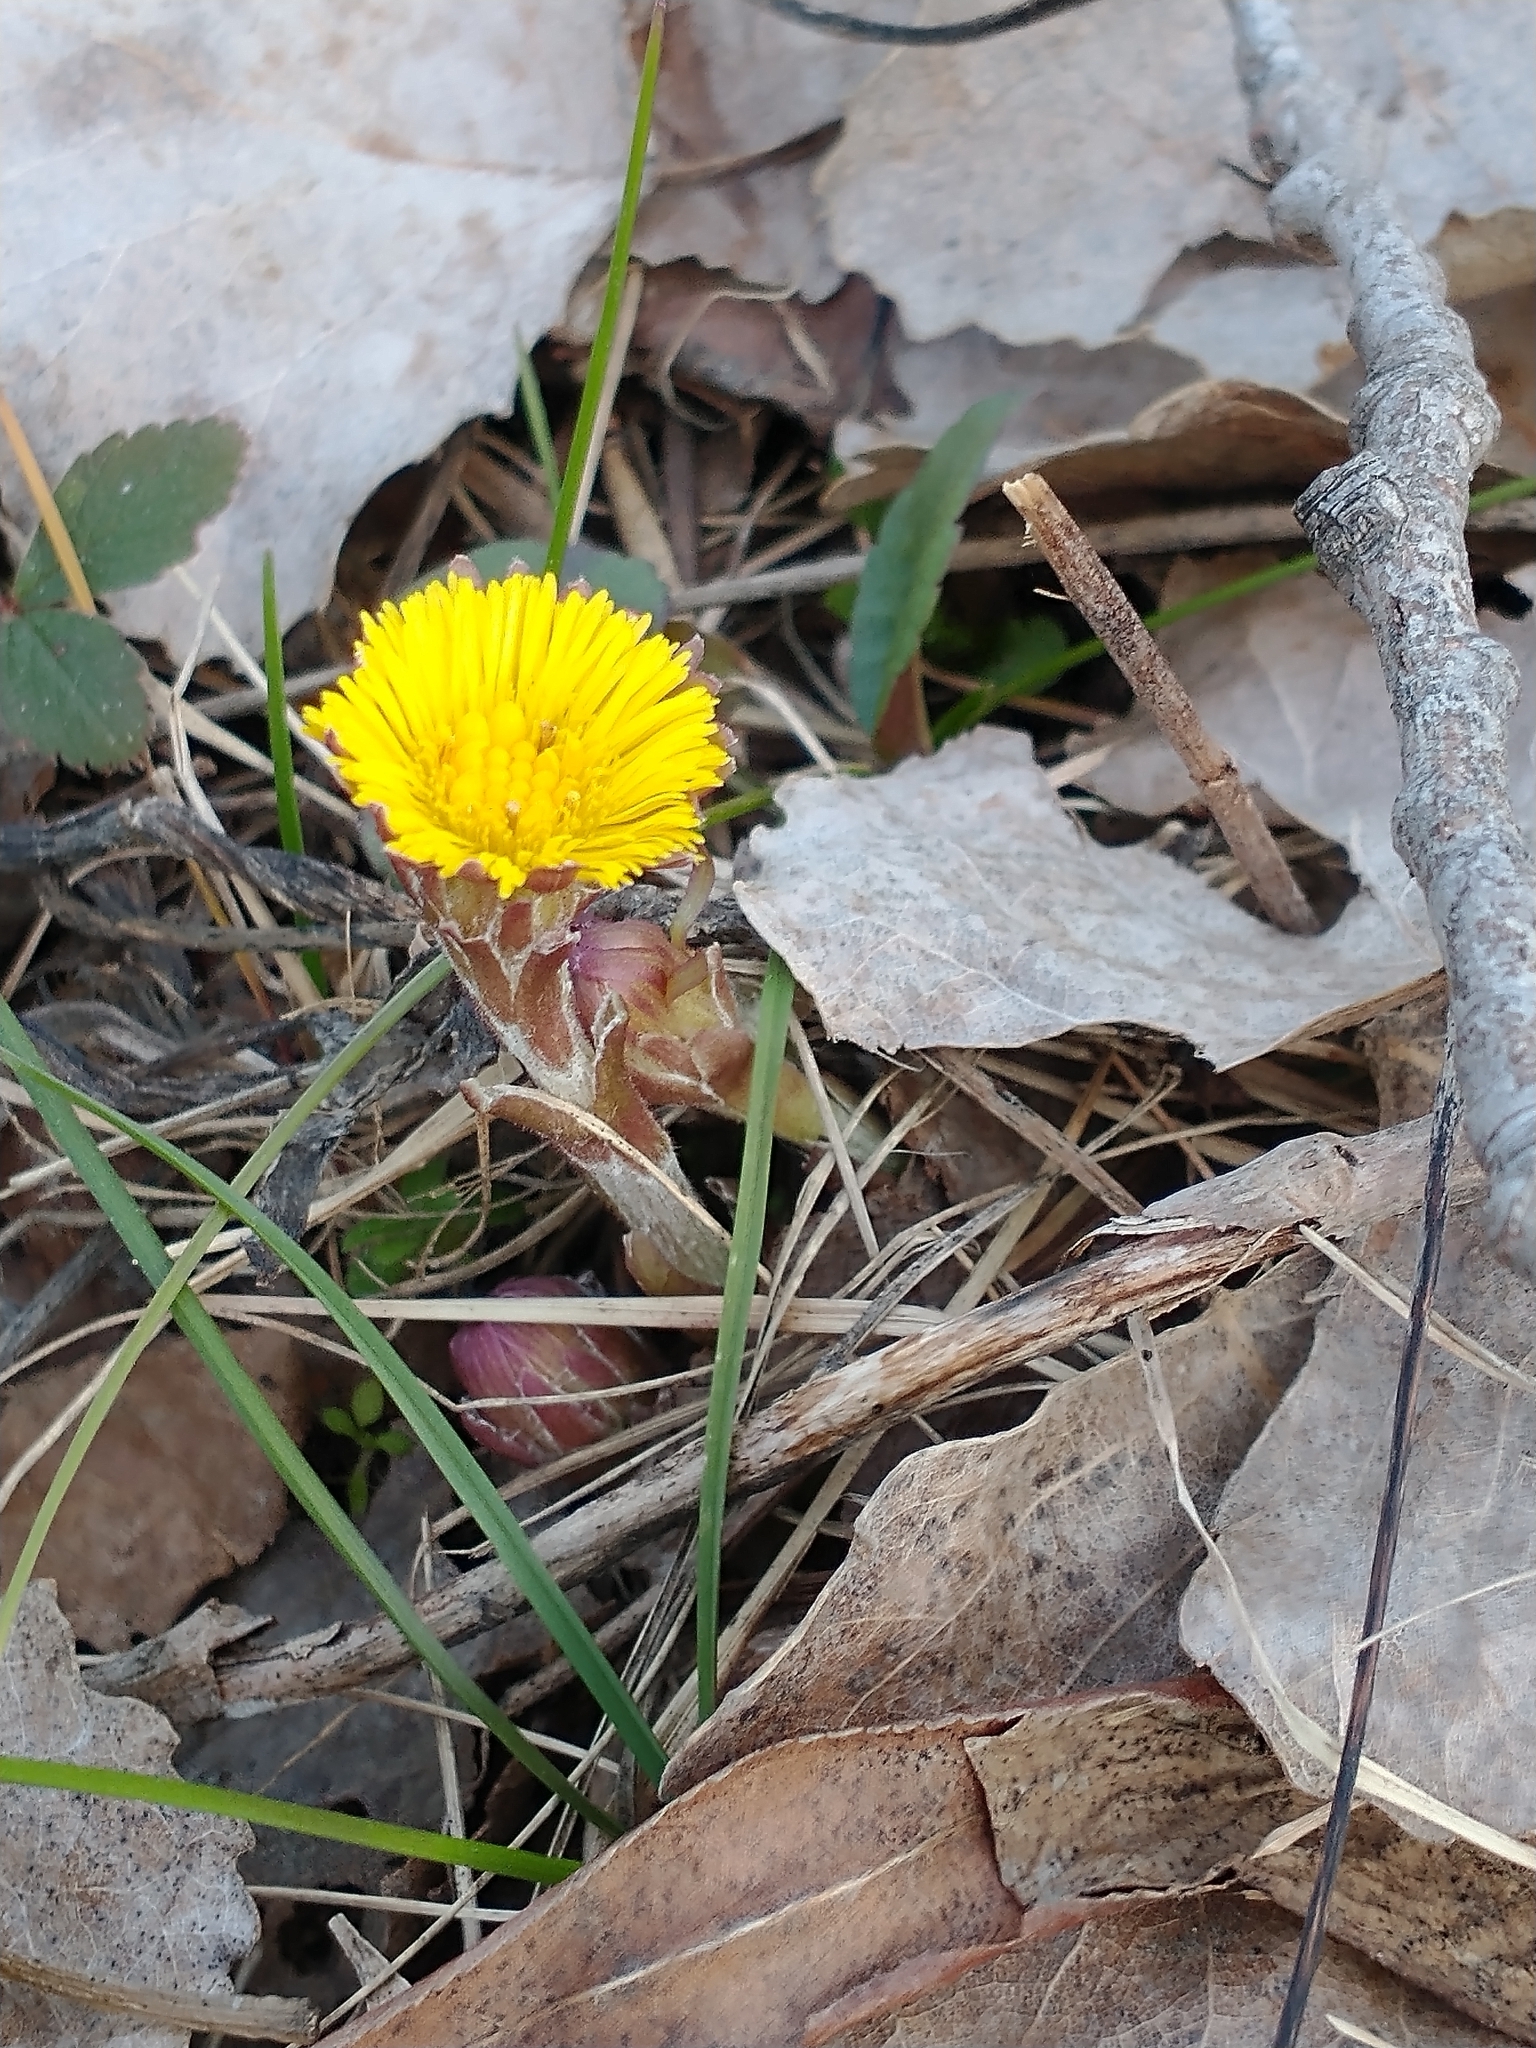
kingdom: Plantae
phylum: Tracheophyta
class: Magnoliopsida
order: Asterales
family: Asteraceae
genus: Tussilago
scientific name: Tussilago farfara
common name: Coltsfoot
